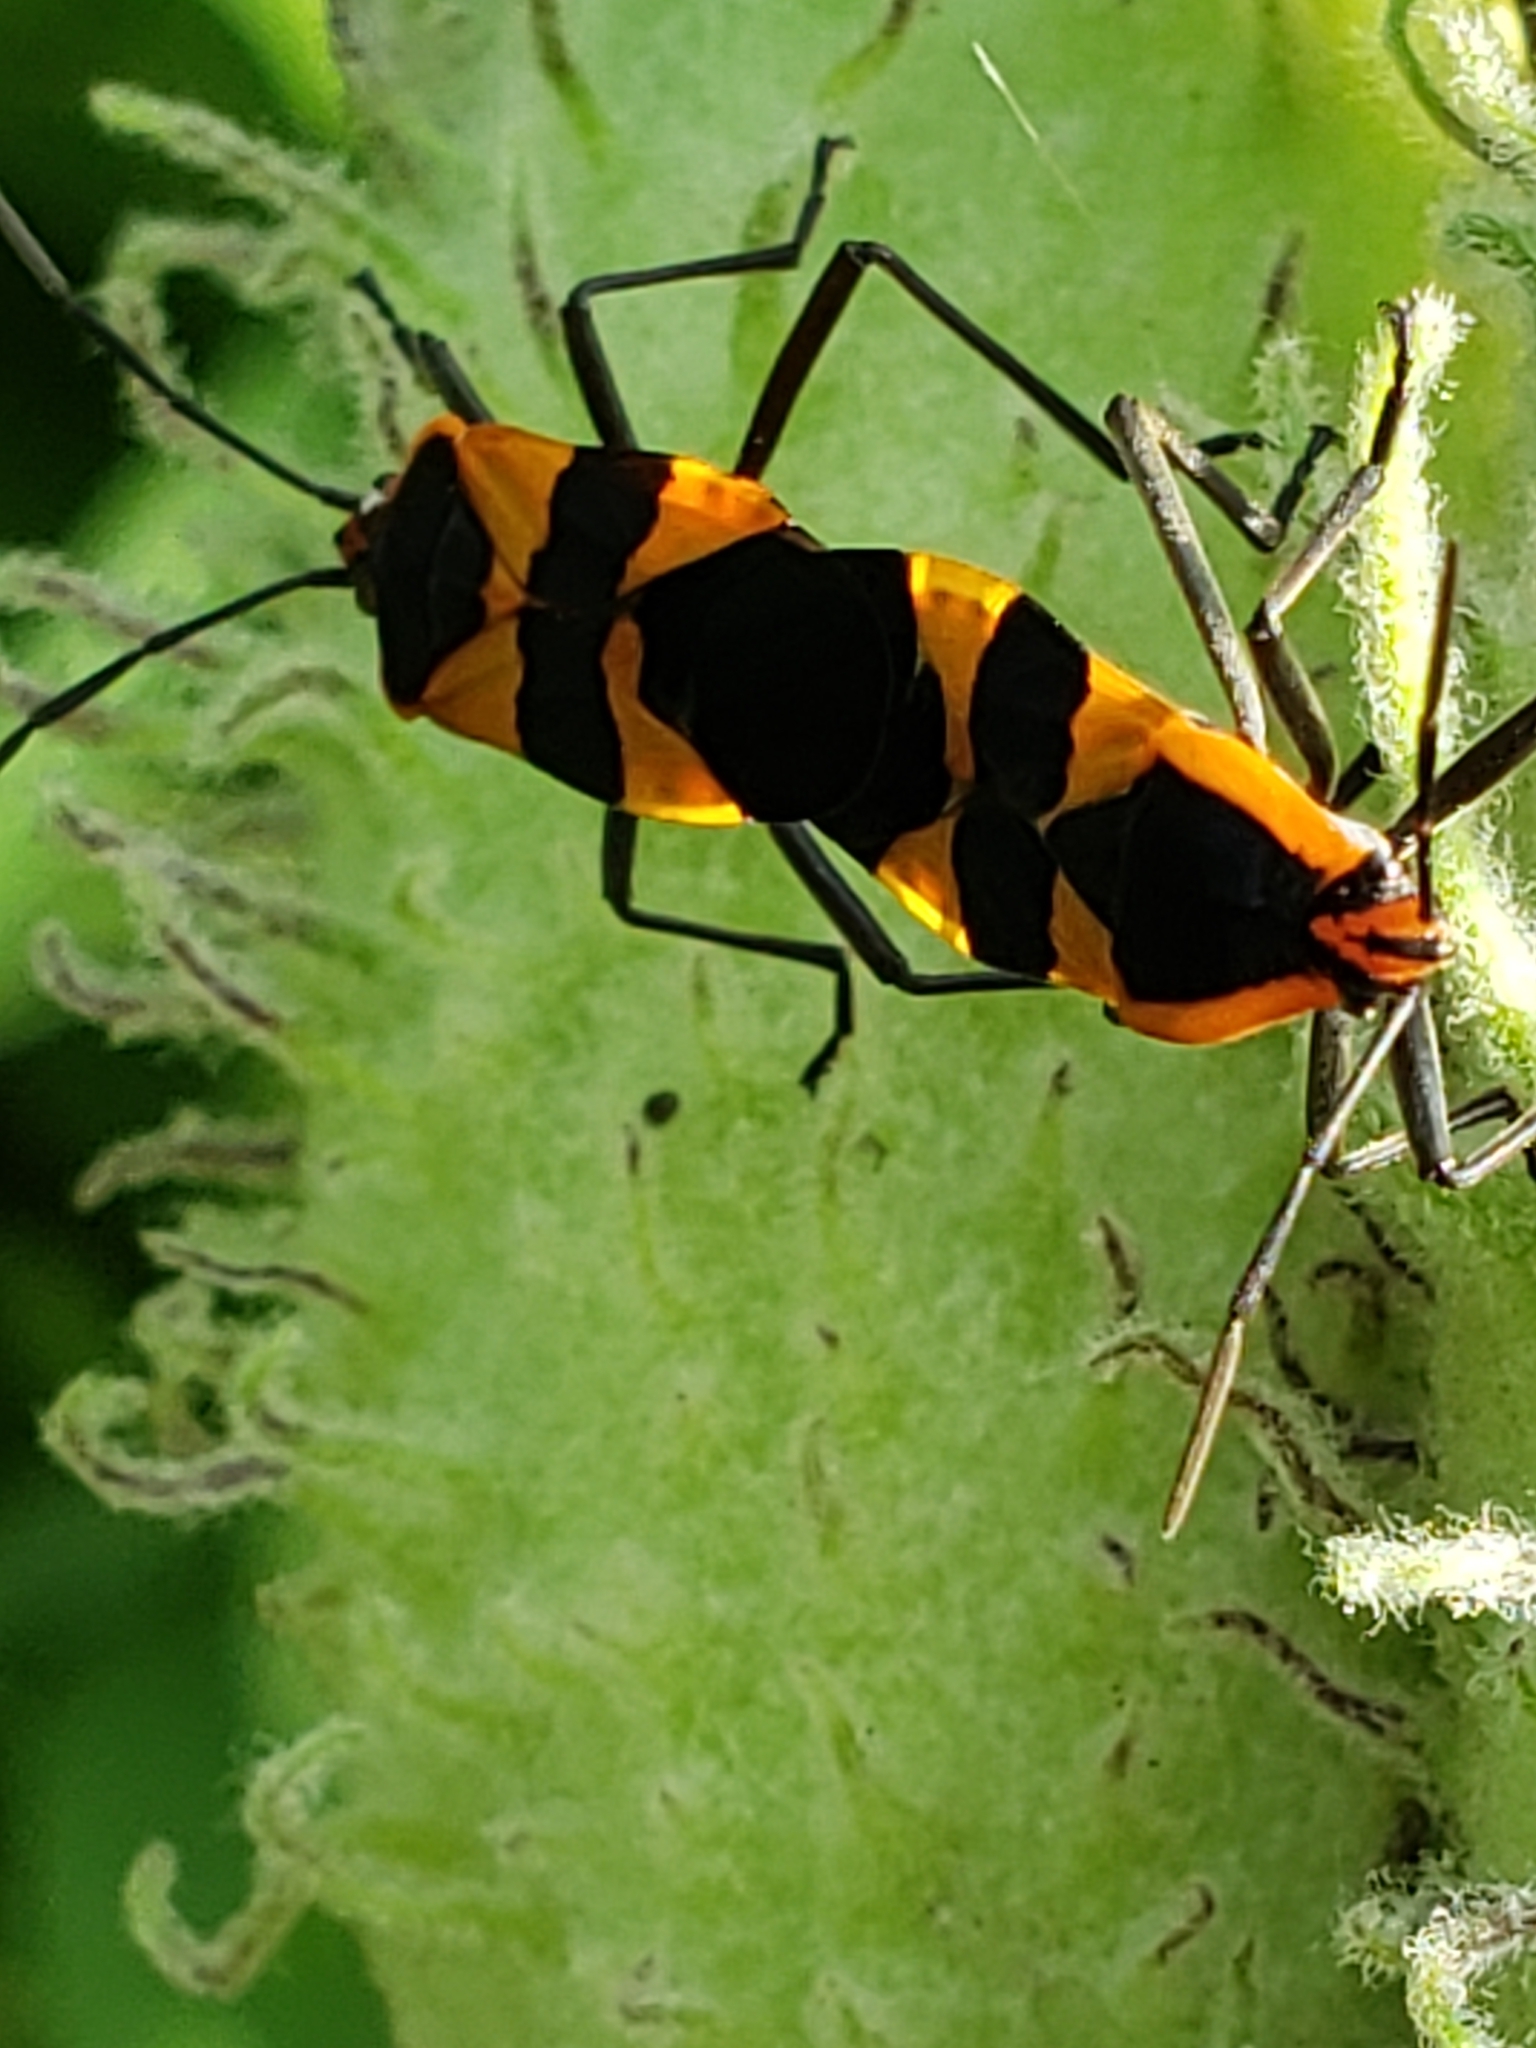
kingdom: Animalia
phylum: Arthropoda
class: Insecta
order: Hemiptera
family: Lygaeidae
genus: Oncopeltus
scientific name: Oncopeltus fasciatus
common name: Large milkweed bug
